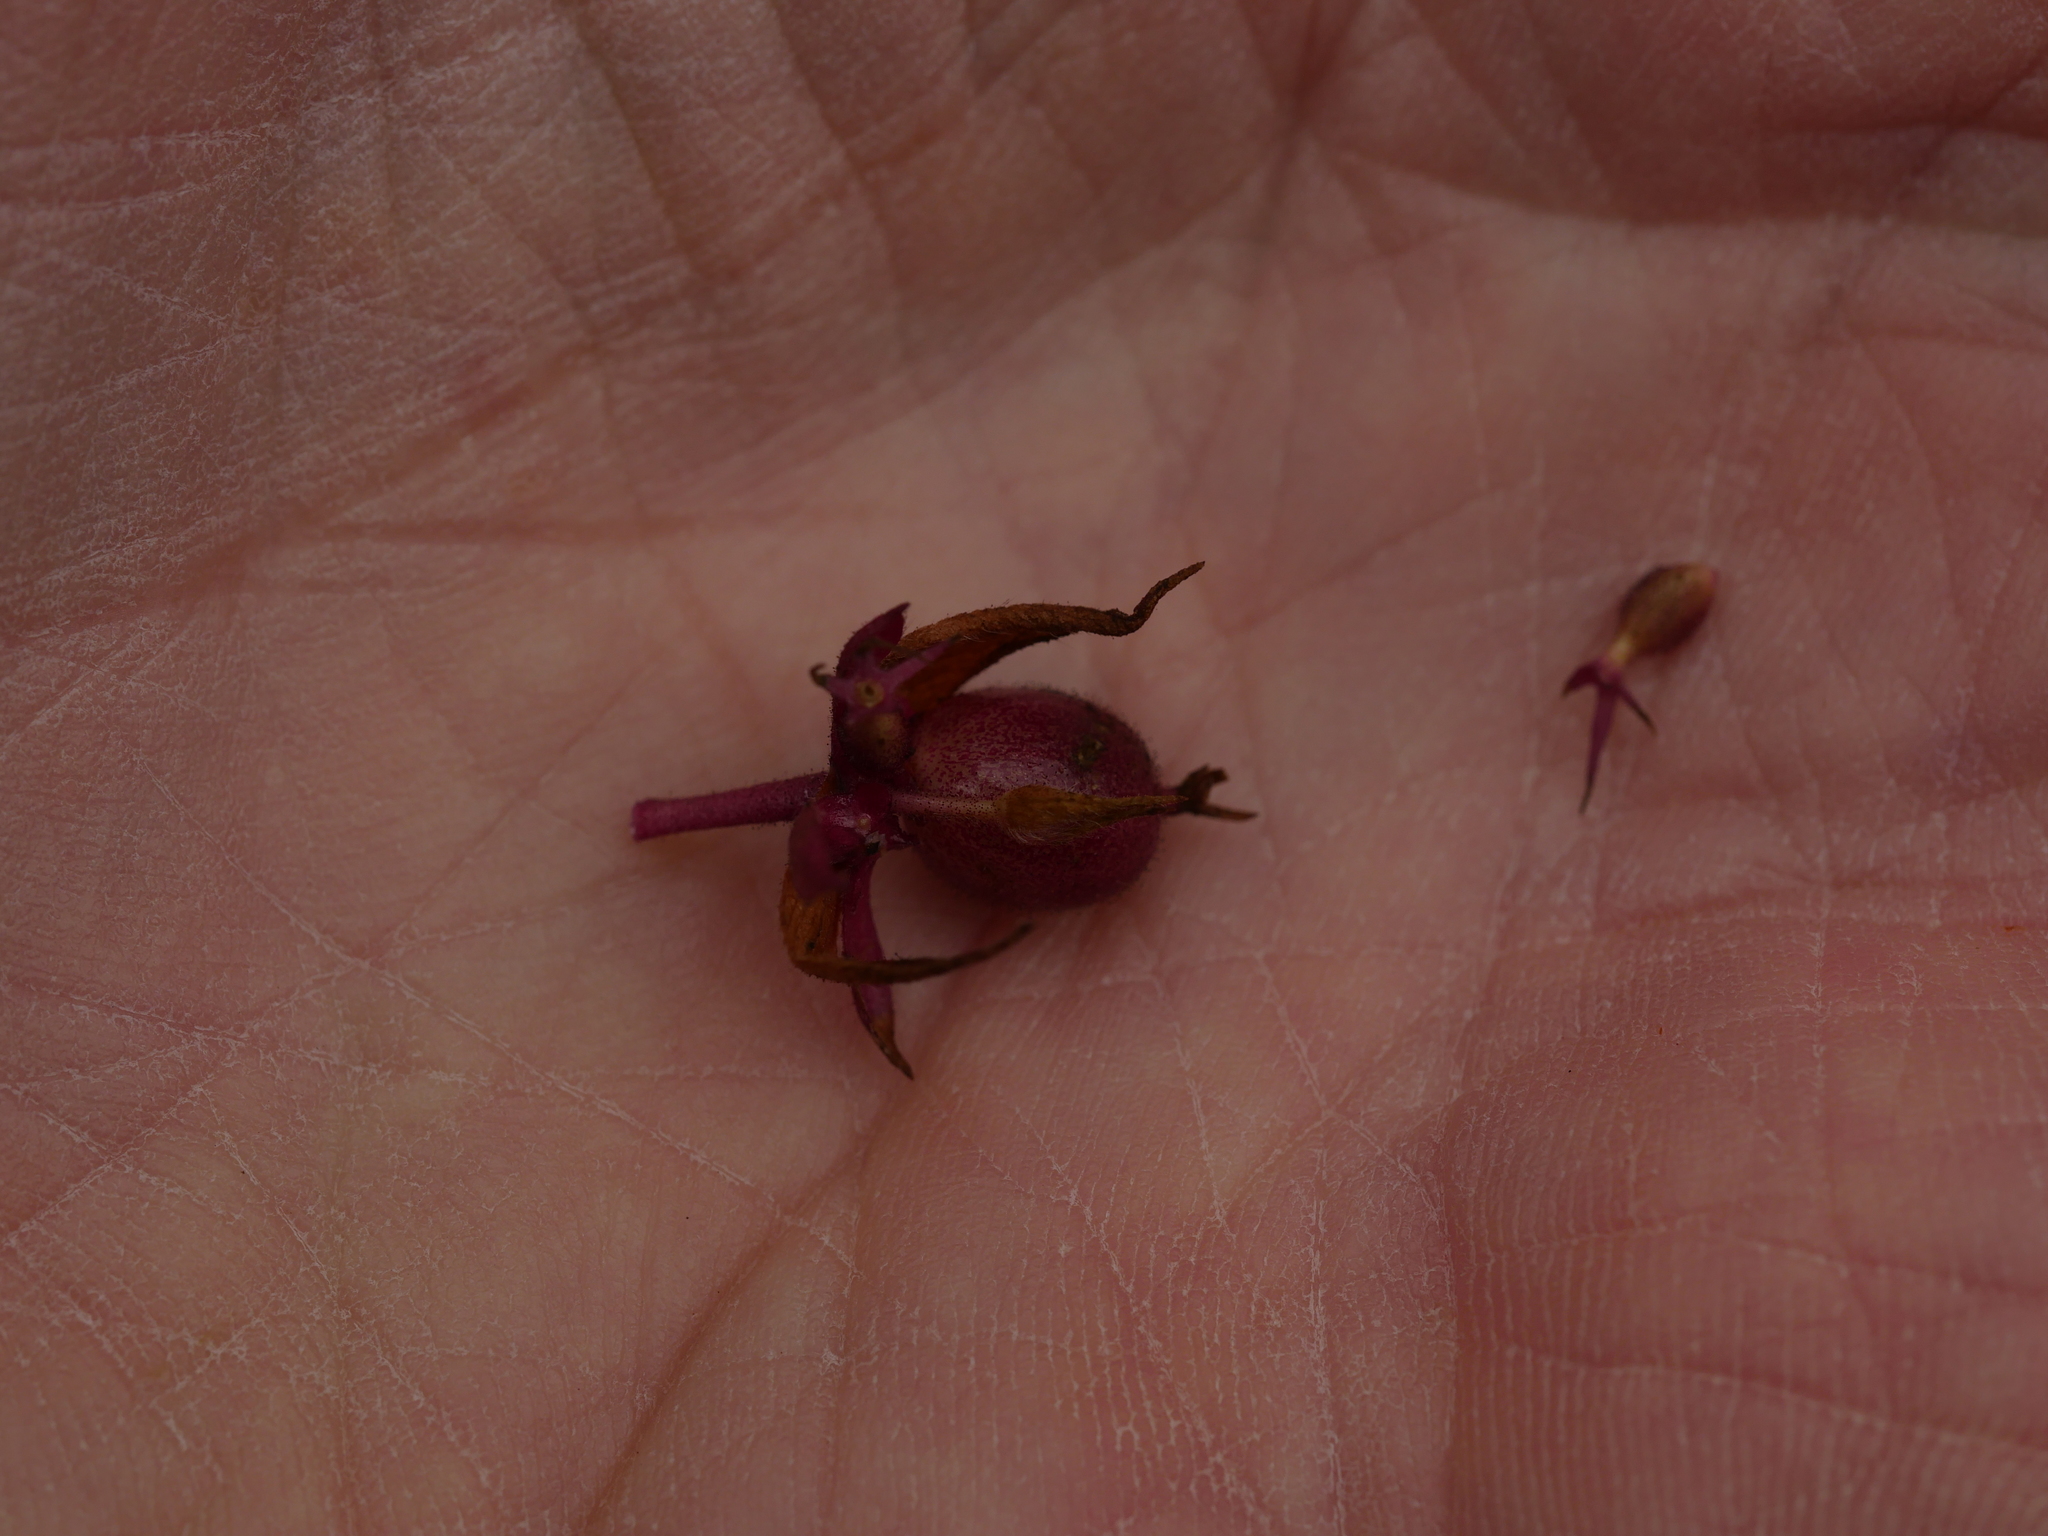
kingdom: Plantae
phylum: Tracheophyta
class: Magnoliopsida
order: Dipsacales
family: Caprifoliaceae
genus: Leycesteria
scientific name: Leycesteria formosa
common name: Himalayan honeysuckle
